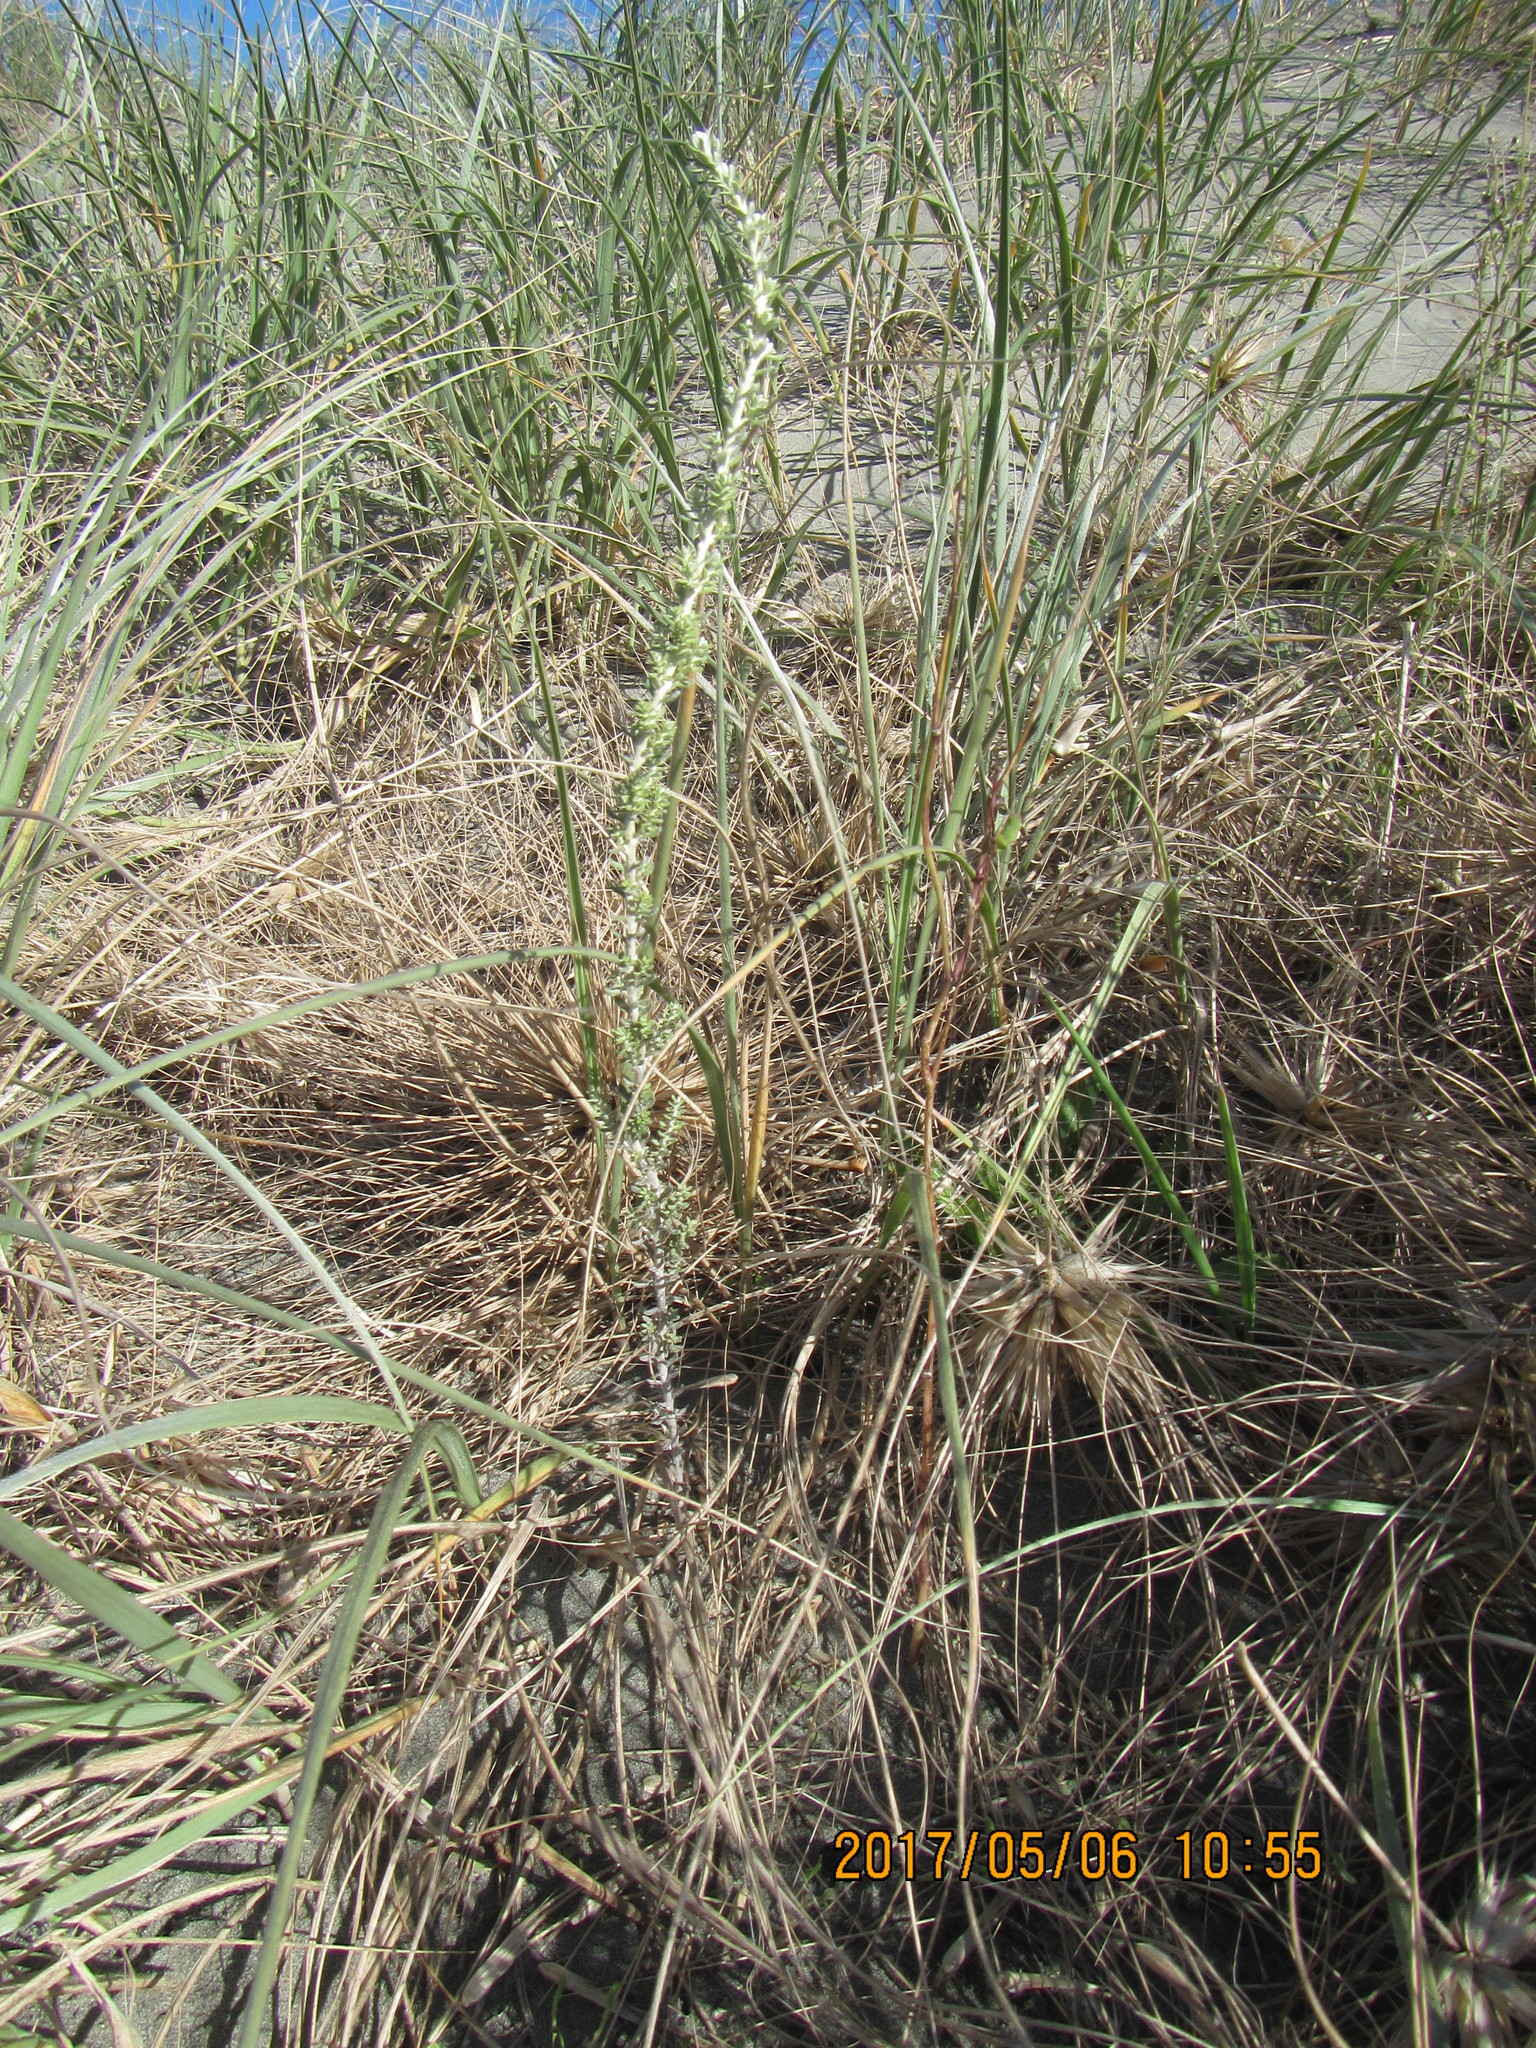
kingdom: Plantae
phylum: Tracheophyta
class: Magnoliopsida
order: Asterales
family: Asteraceae
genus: Ozothamnus
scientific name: Ozothamnus leptophyllus
